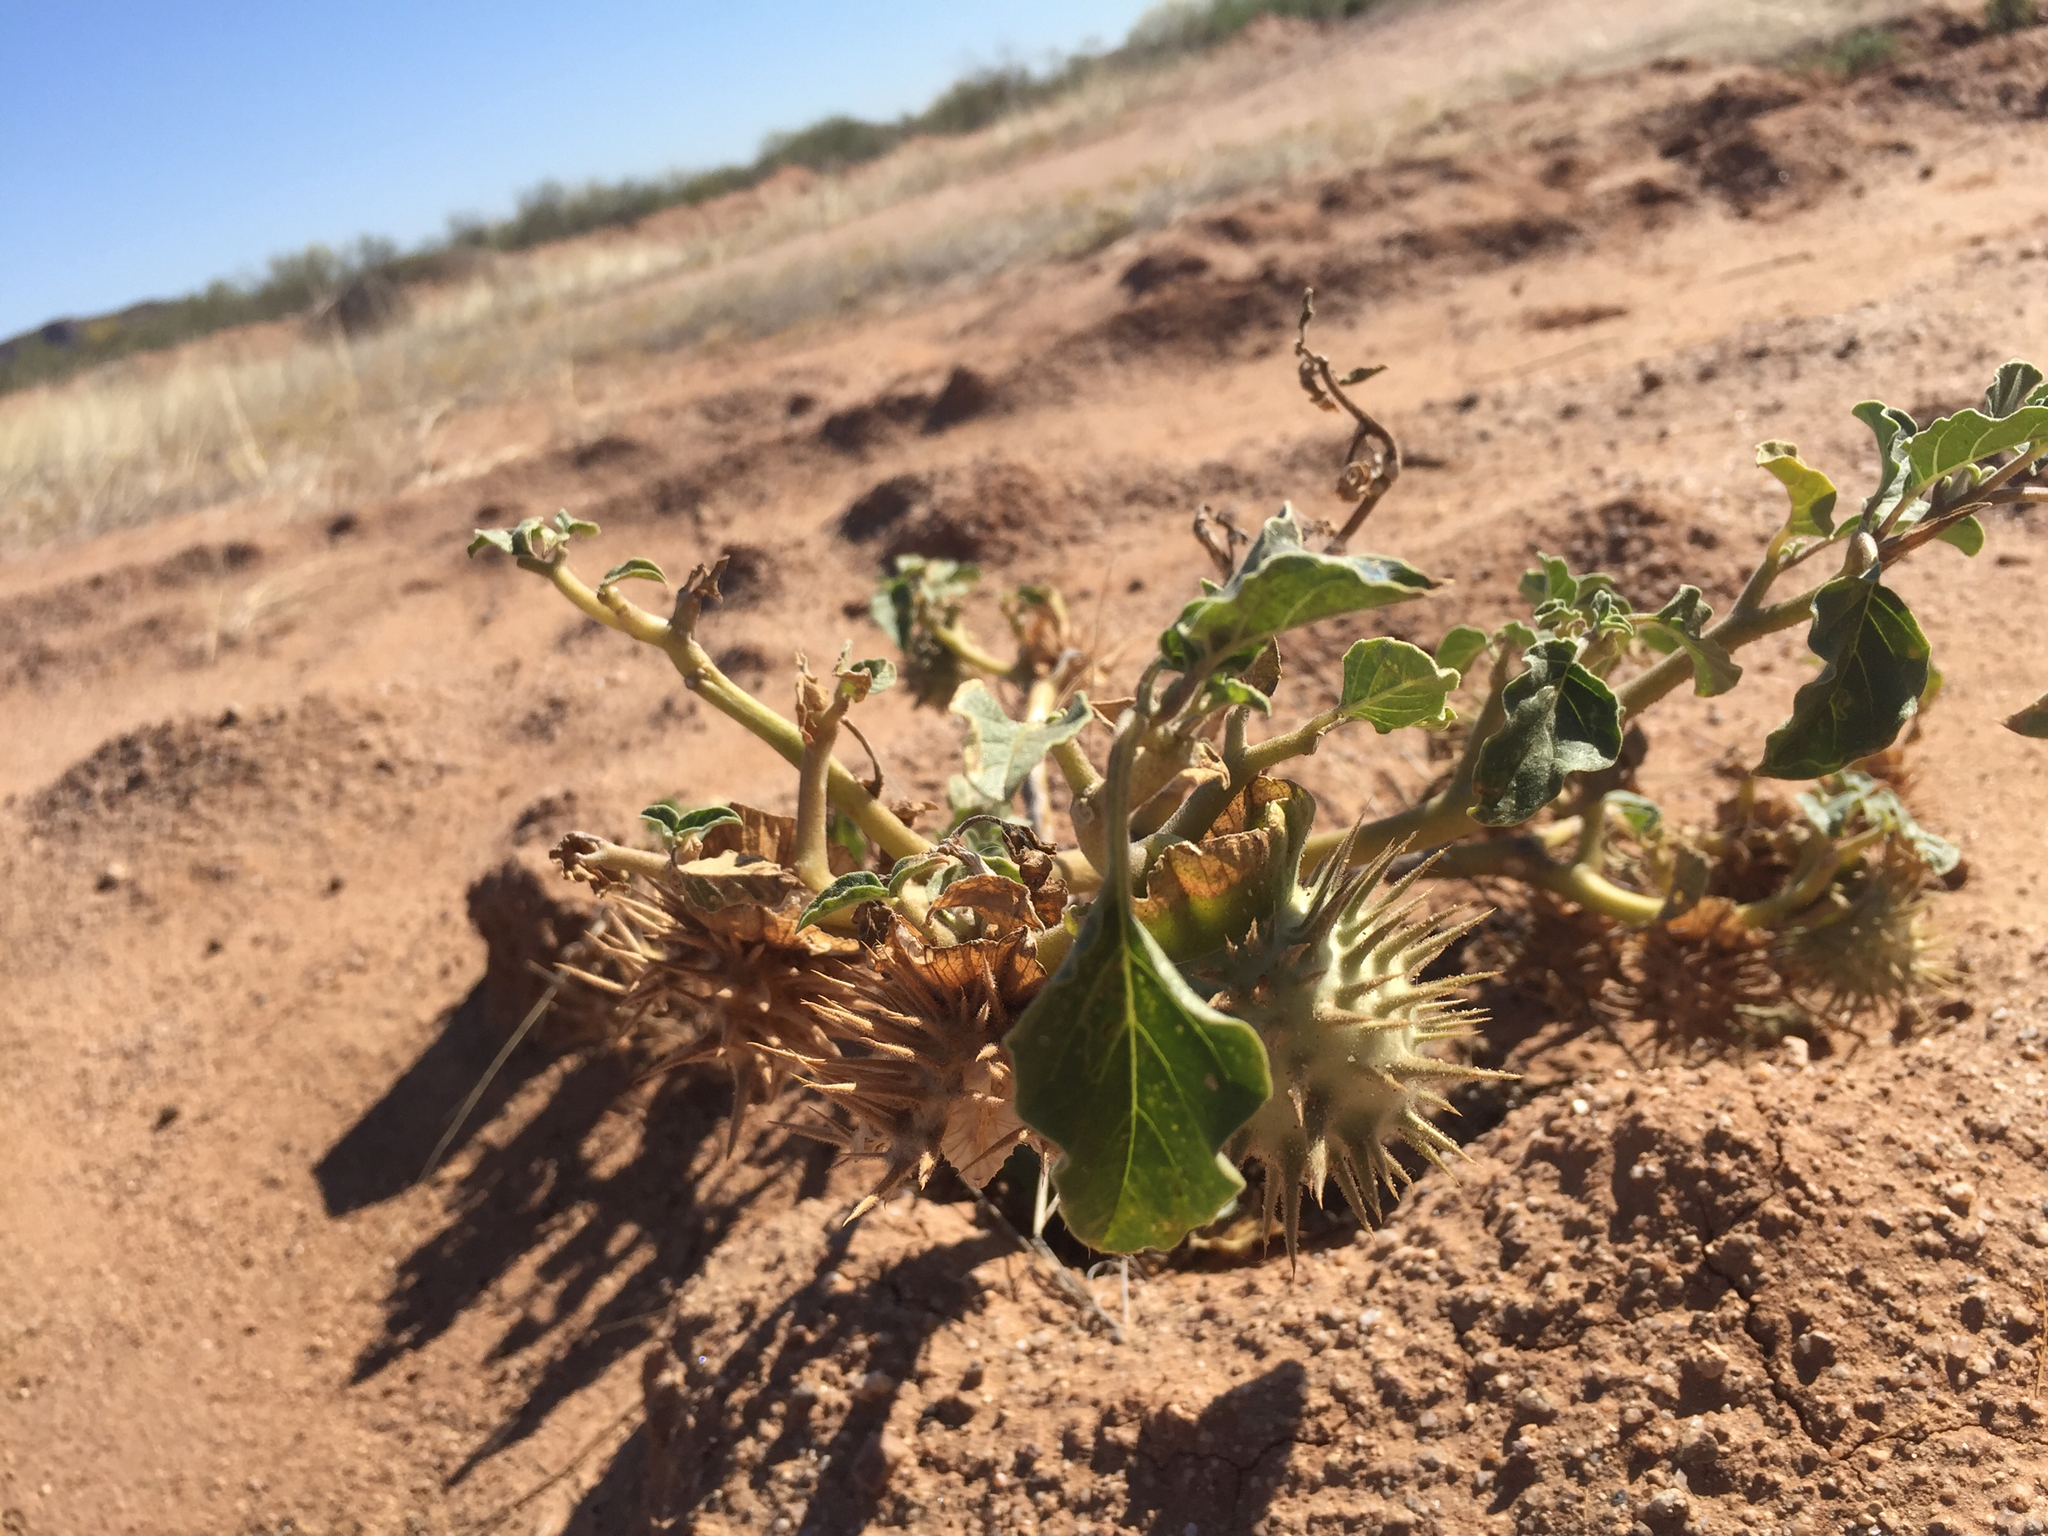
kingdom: Plantae
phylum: Tracheophyta
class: Magnoliopsida
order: Solanales
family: Solanaceae
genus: Datura
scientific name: Datura discolor
